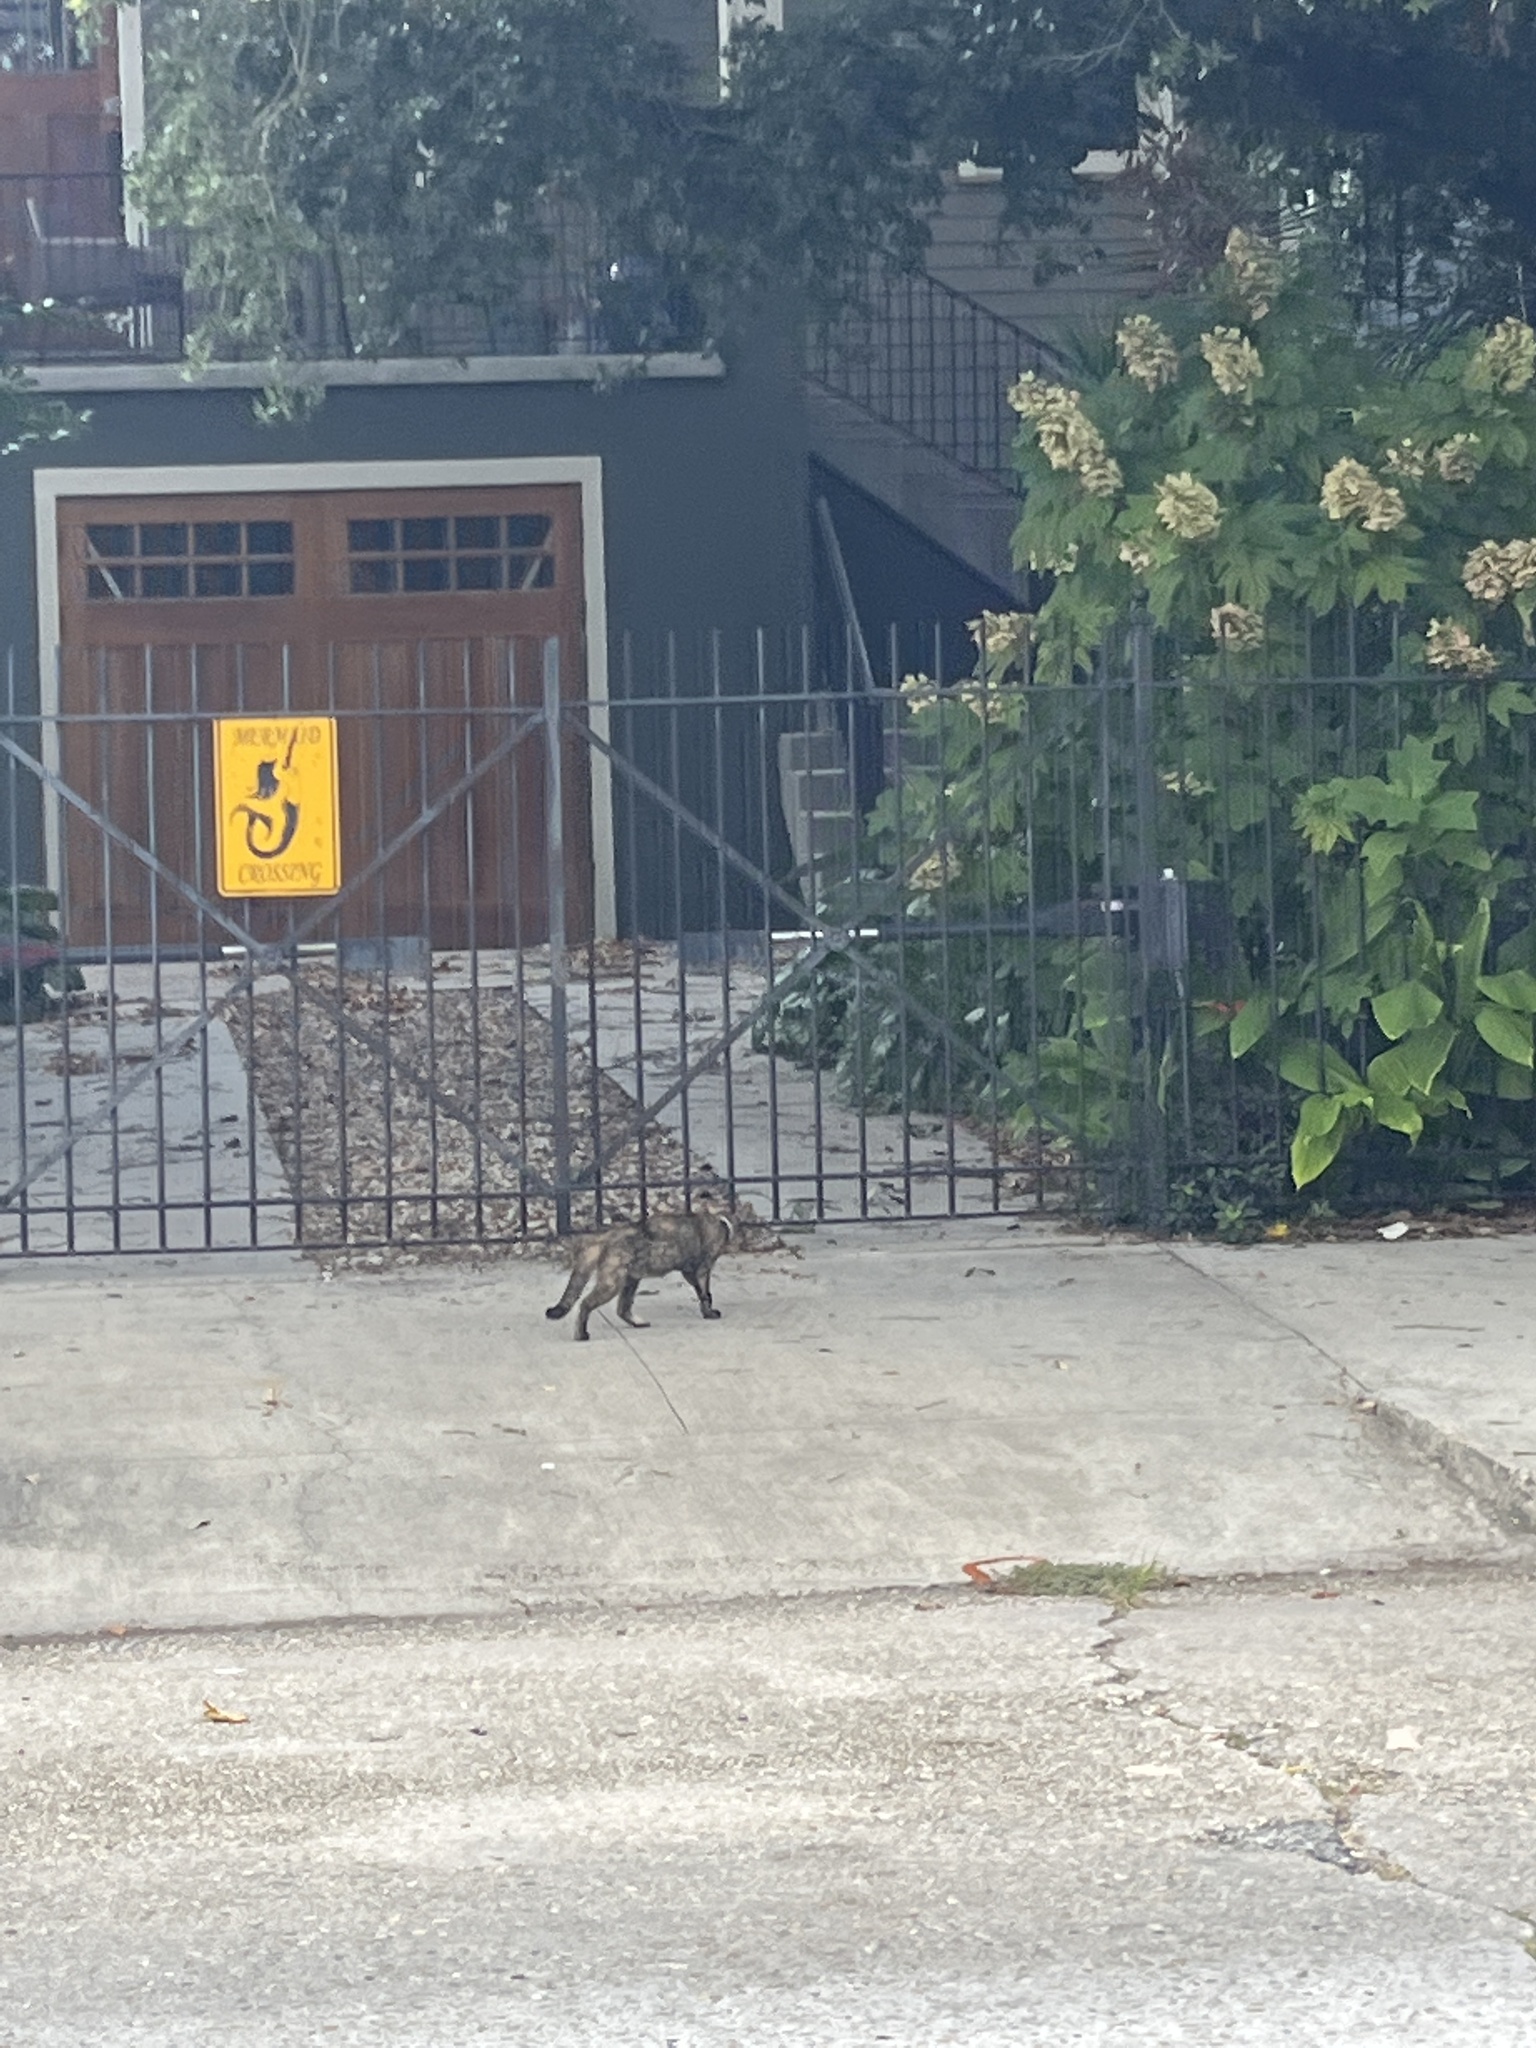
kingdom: Animalia
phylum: Chordata
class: Mammalia
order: Carnivora
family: Felidae
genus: Felis
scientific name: Felis catus
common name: Domestic cat
